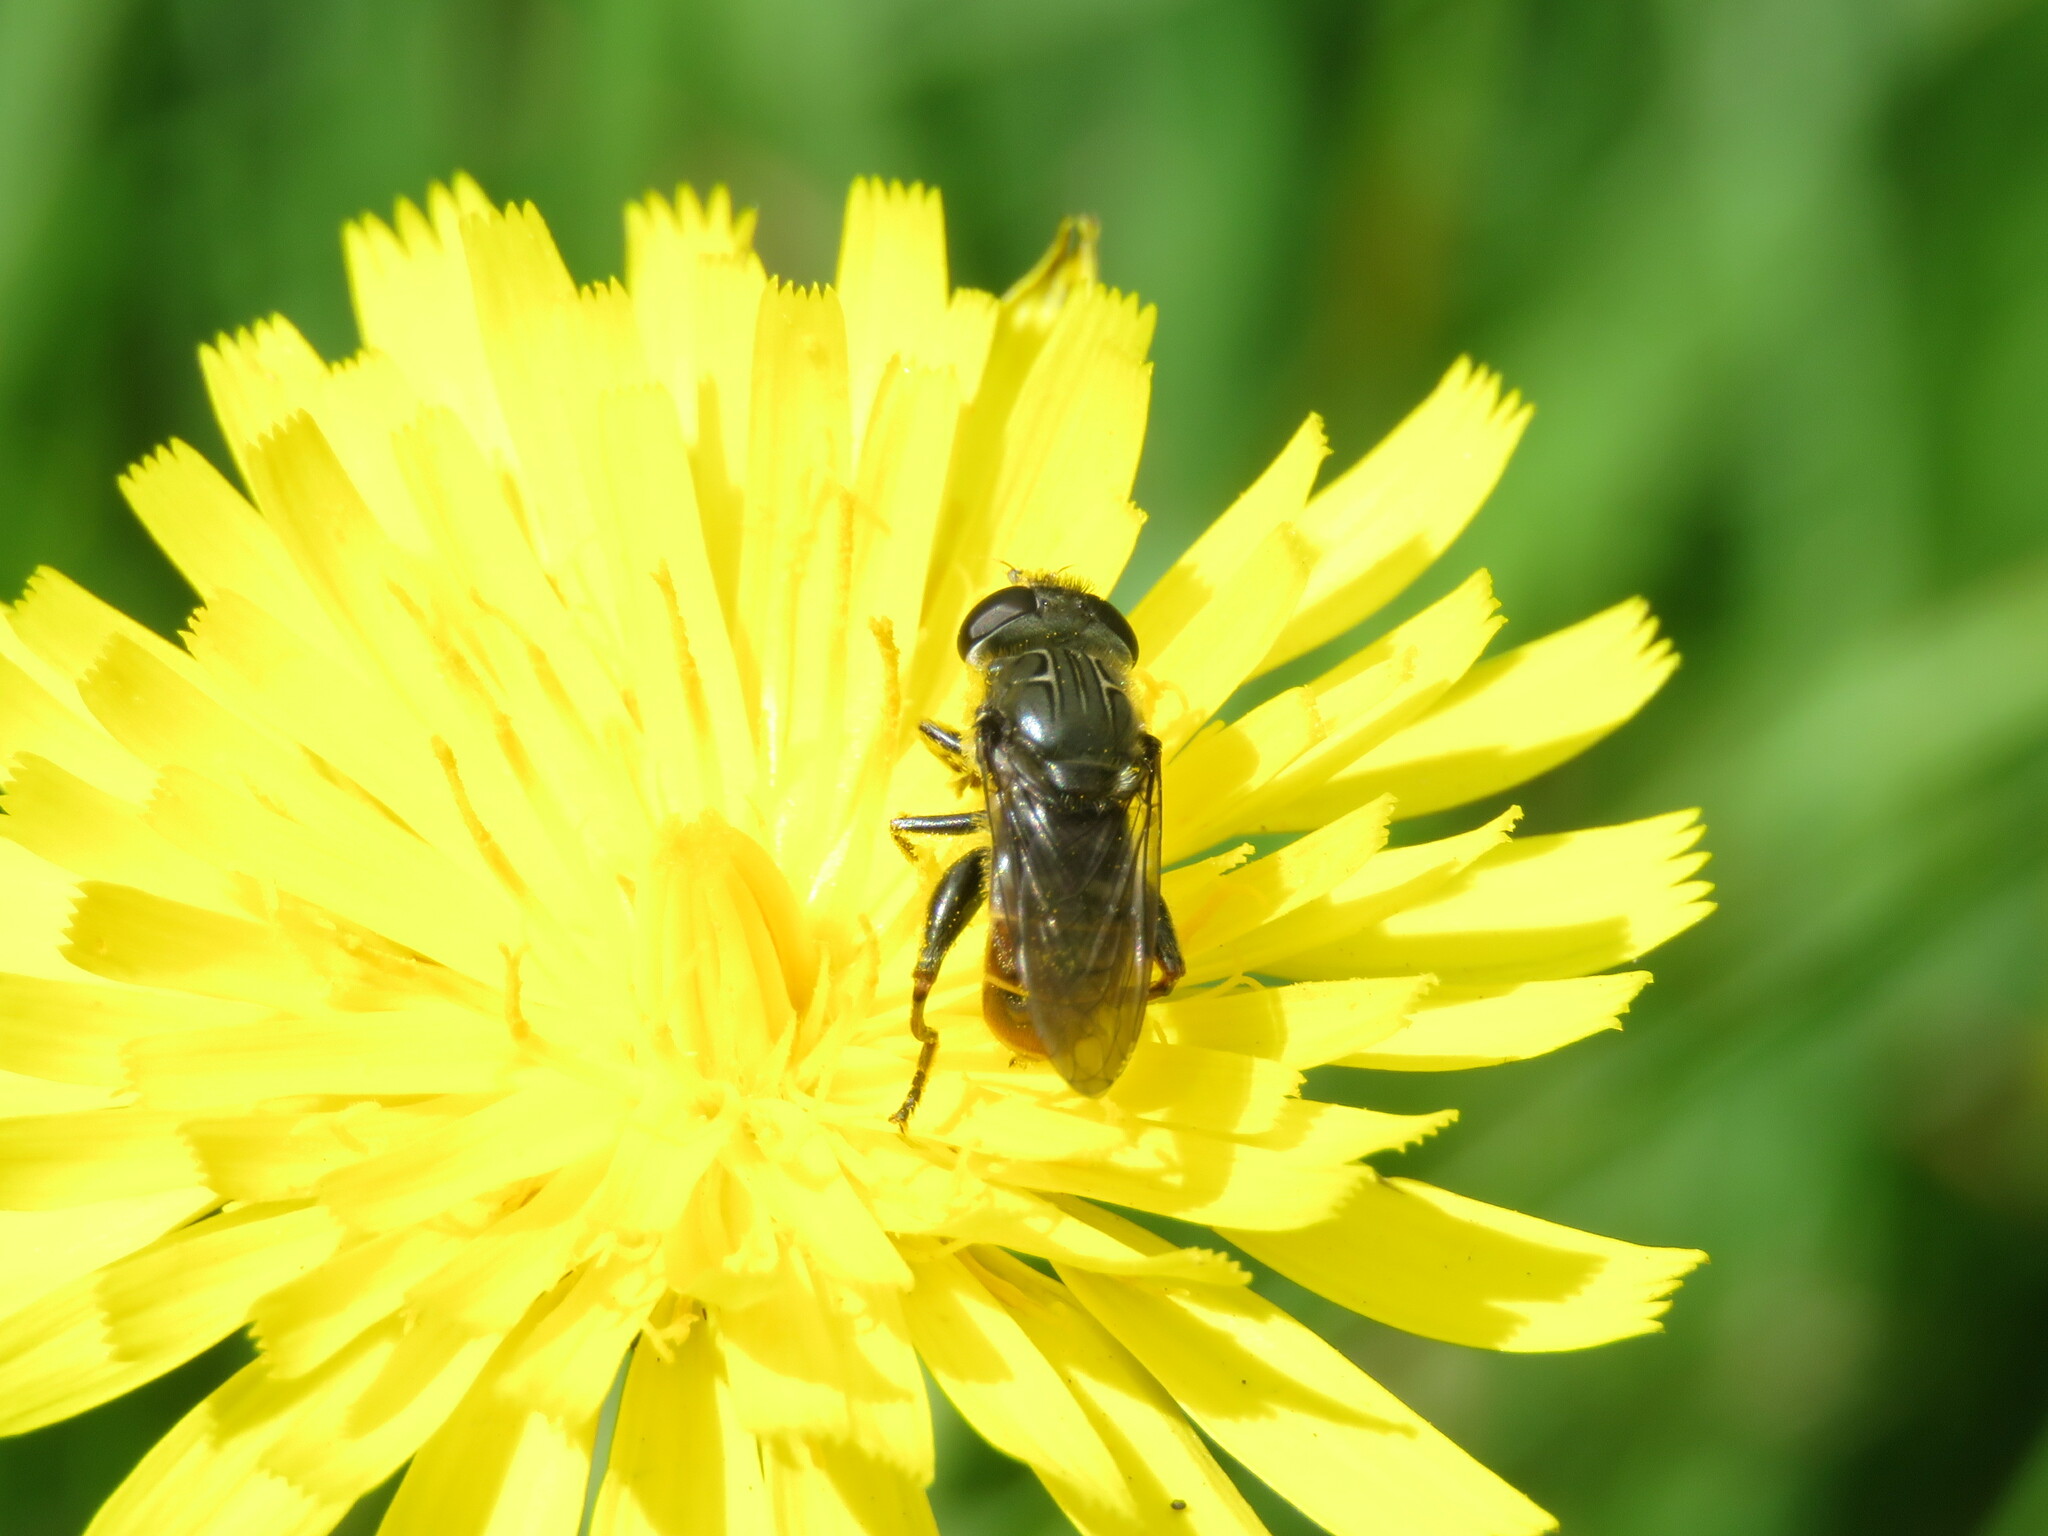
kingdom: Animalia
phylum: Arthropoda
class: Insecta
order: Diptera
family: Syrphidae
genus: Asemosyrphus
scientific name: Asemosyrphus
